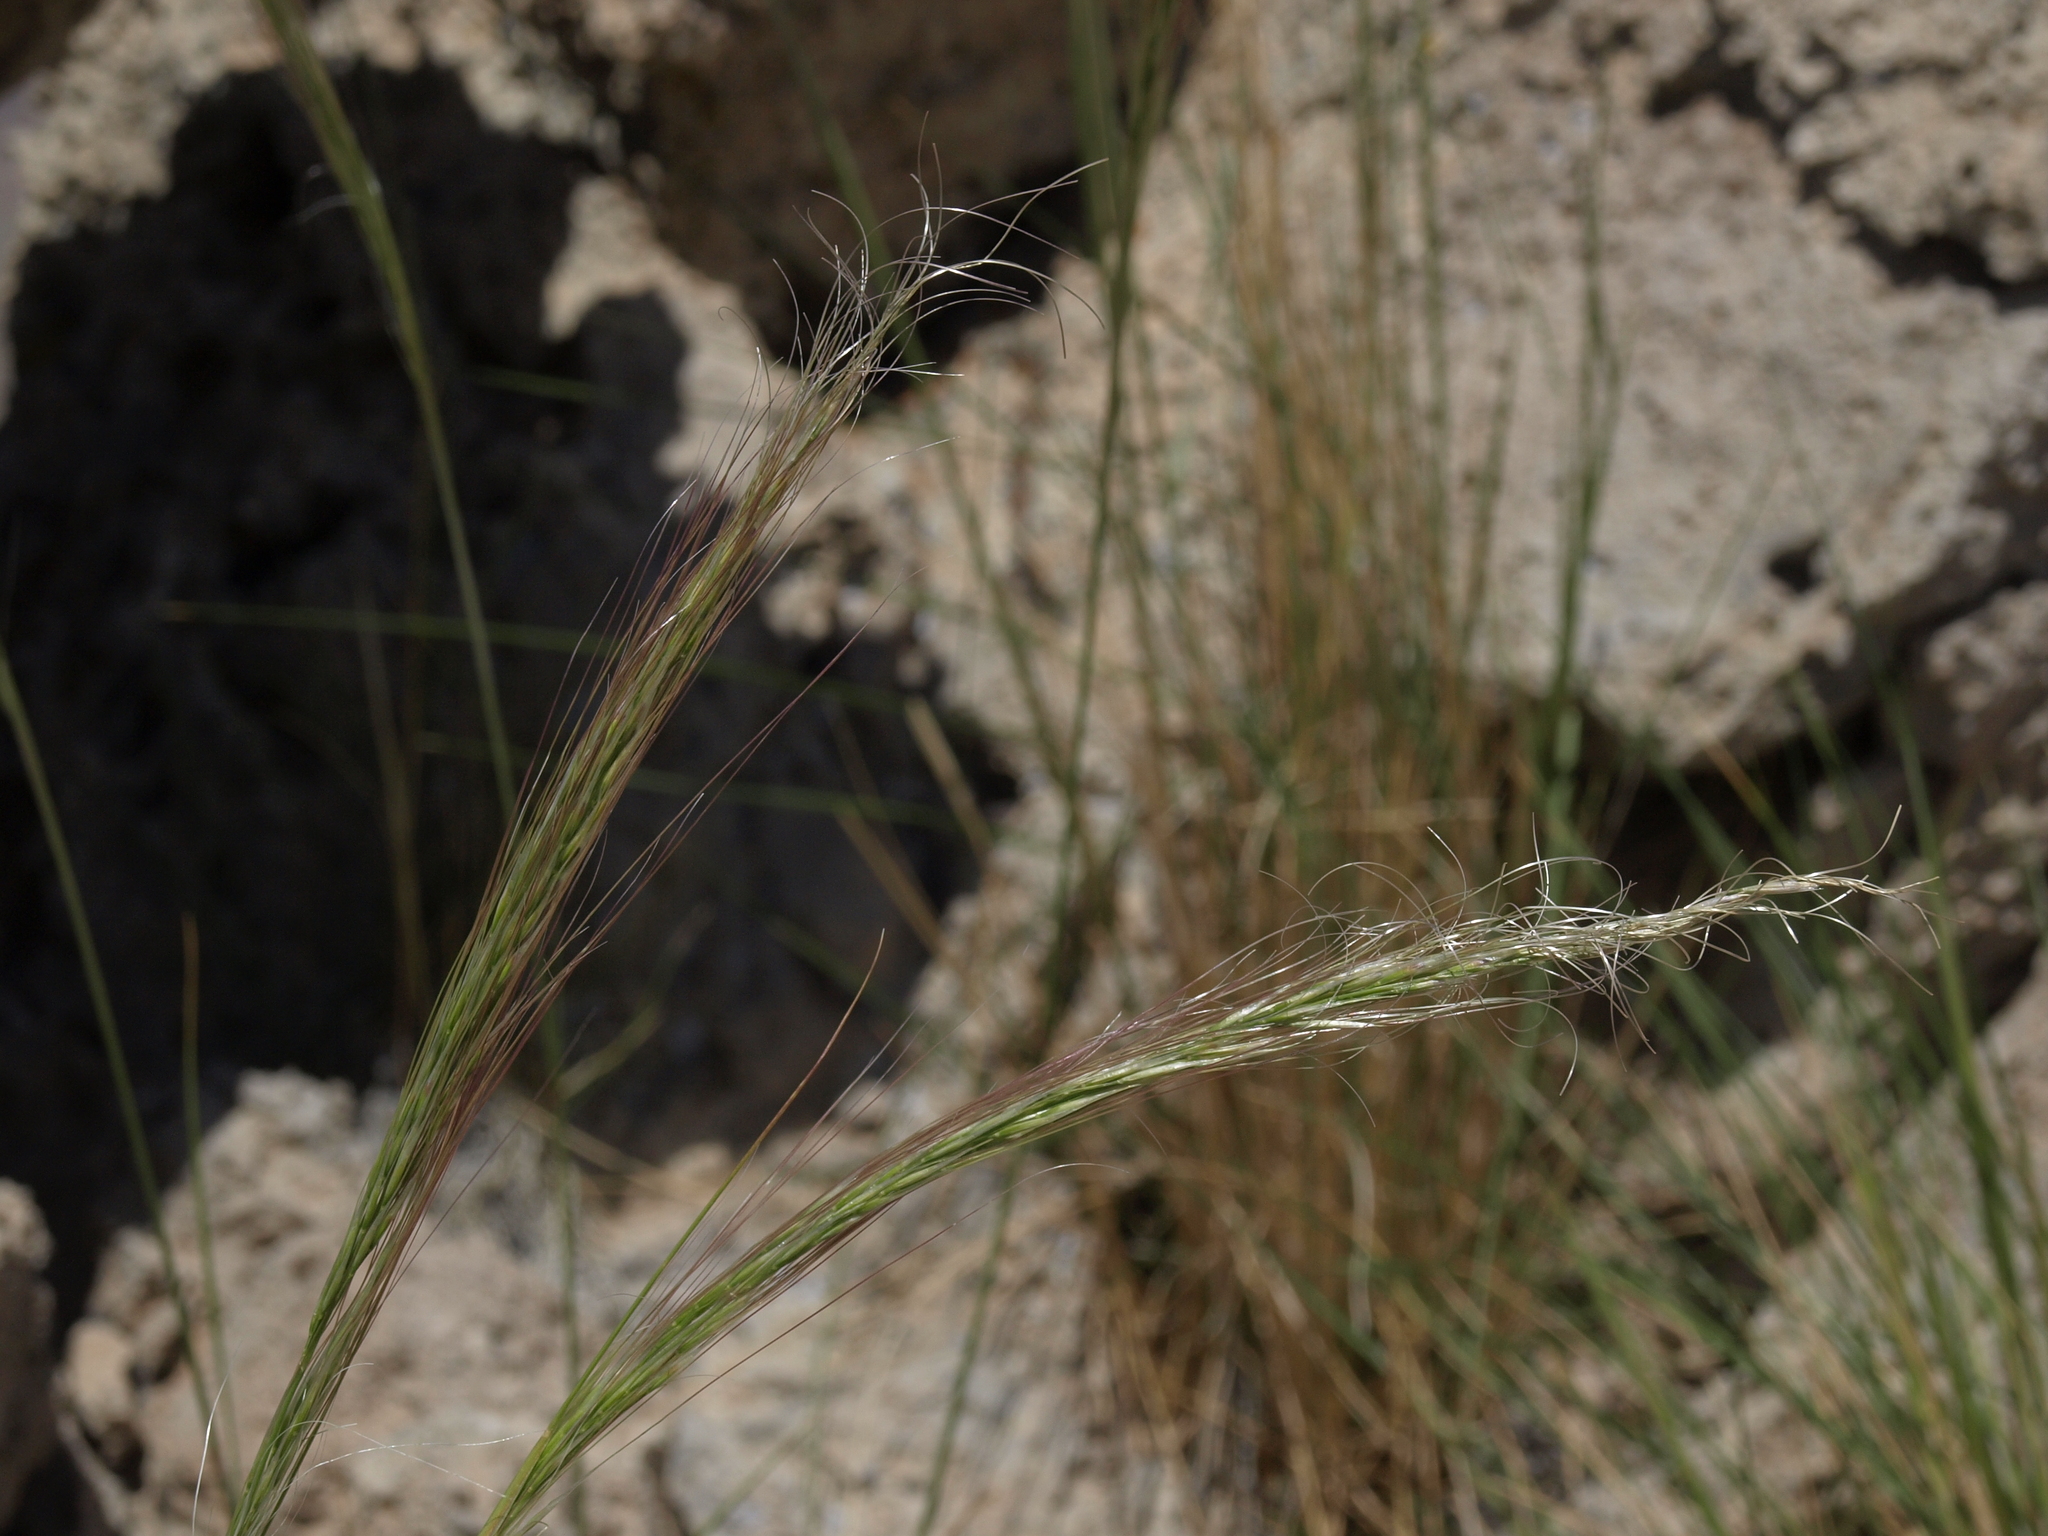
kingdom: Plantae
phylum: Tracheophyta
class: Liliopsida
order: Poales
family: Poaceae
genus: Eriocoma
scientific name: Eriocoma arida
